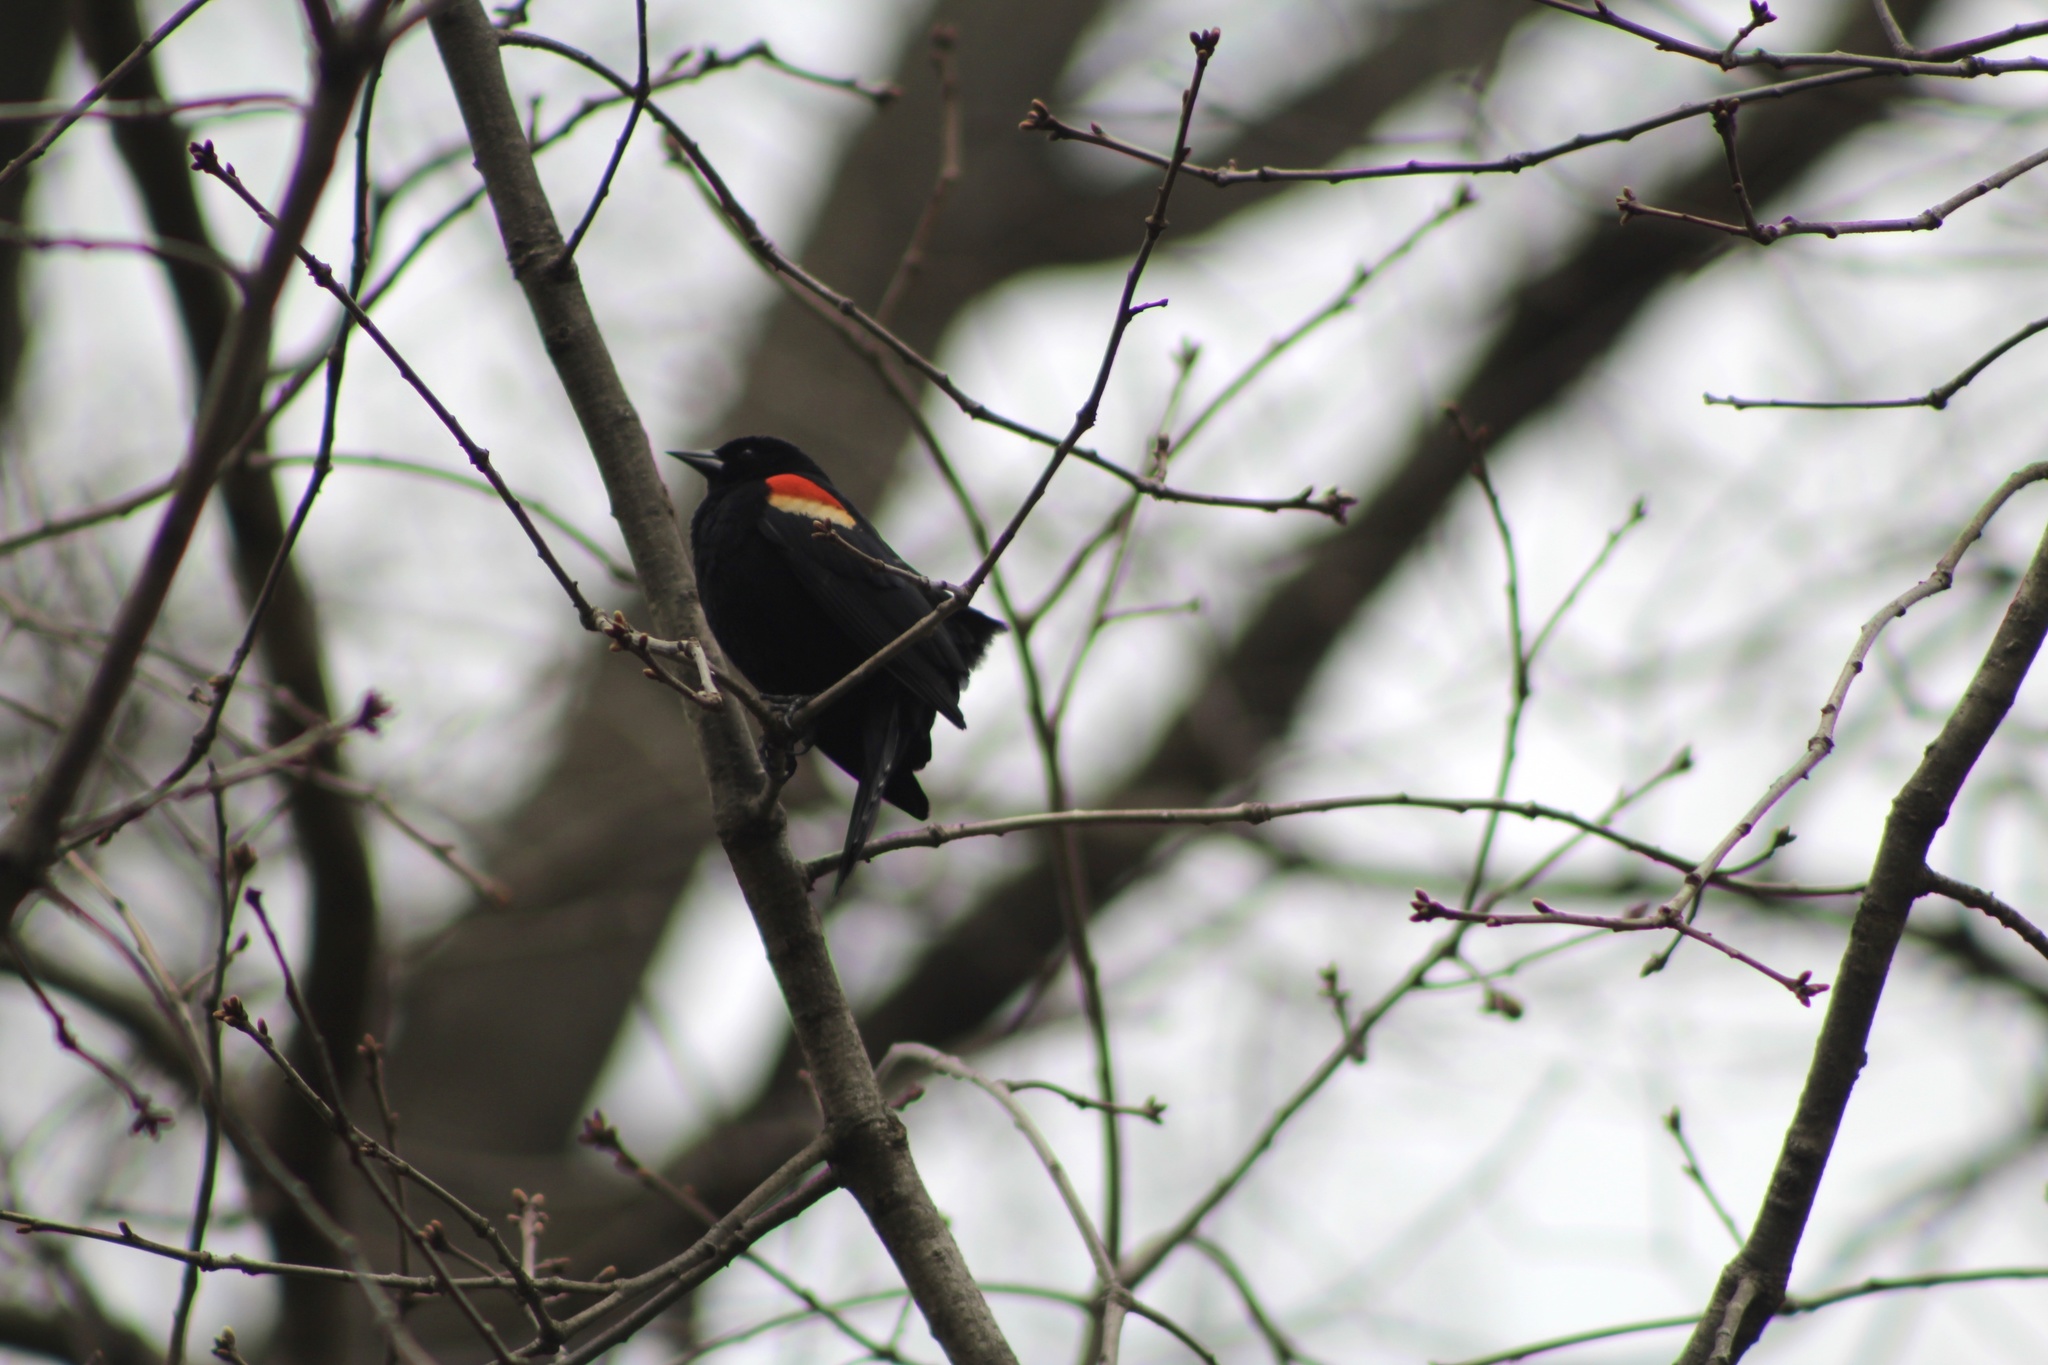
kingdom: Animalia
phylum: Chordata
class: Aves
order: Passeriformes
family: Icteridae
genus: Agelaius
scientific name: Agelaius phoeniceus
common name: Red-winged blackbird
